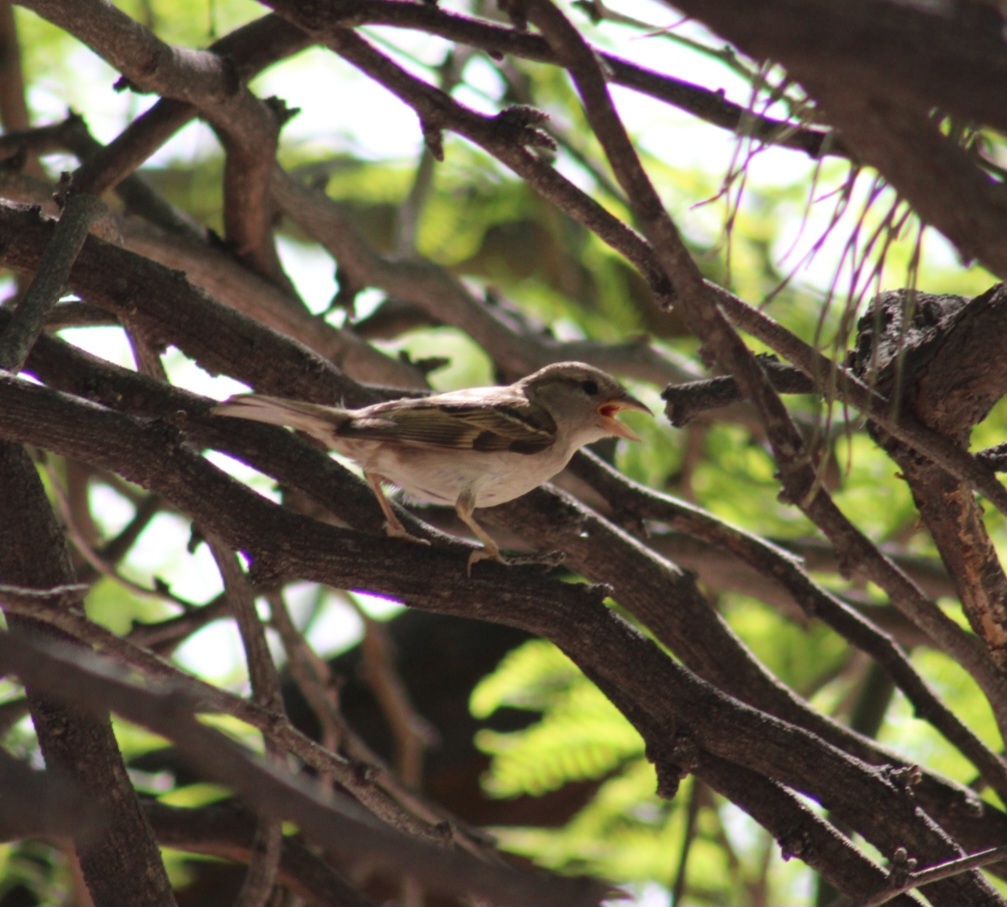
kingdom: Animalia
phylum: Chordata
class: Aves
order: Passeriformes
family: Passeridae
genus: Passer
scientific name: Passer domesticus
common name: House sparrow
